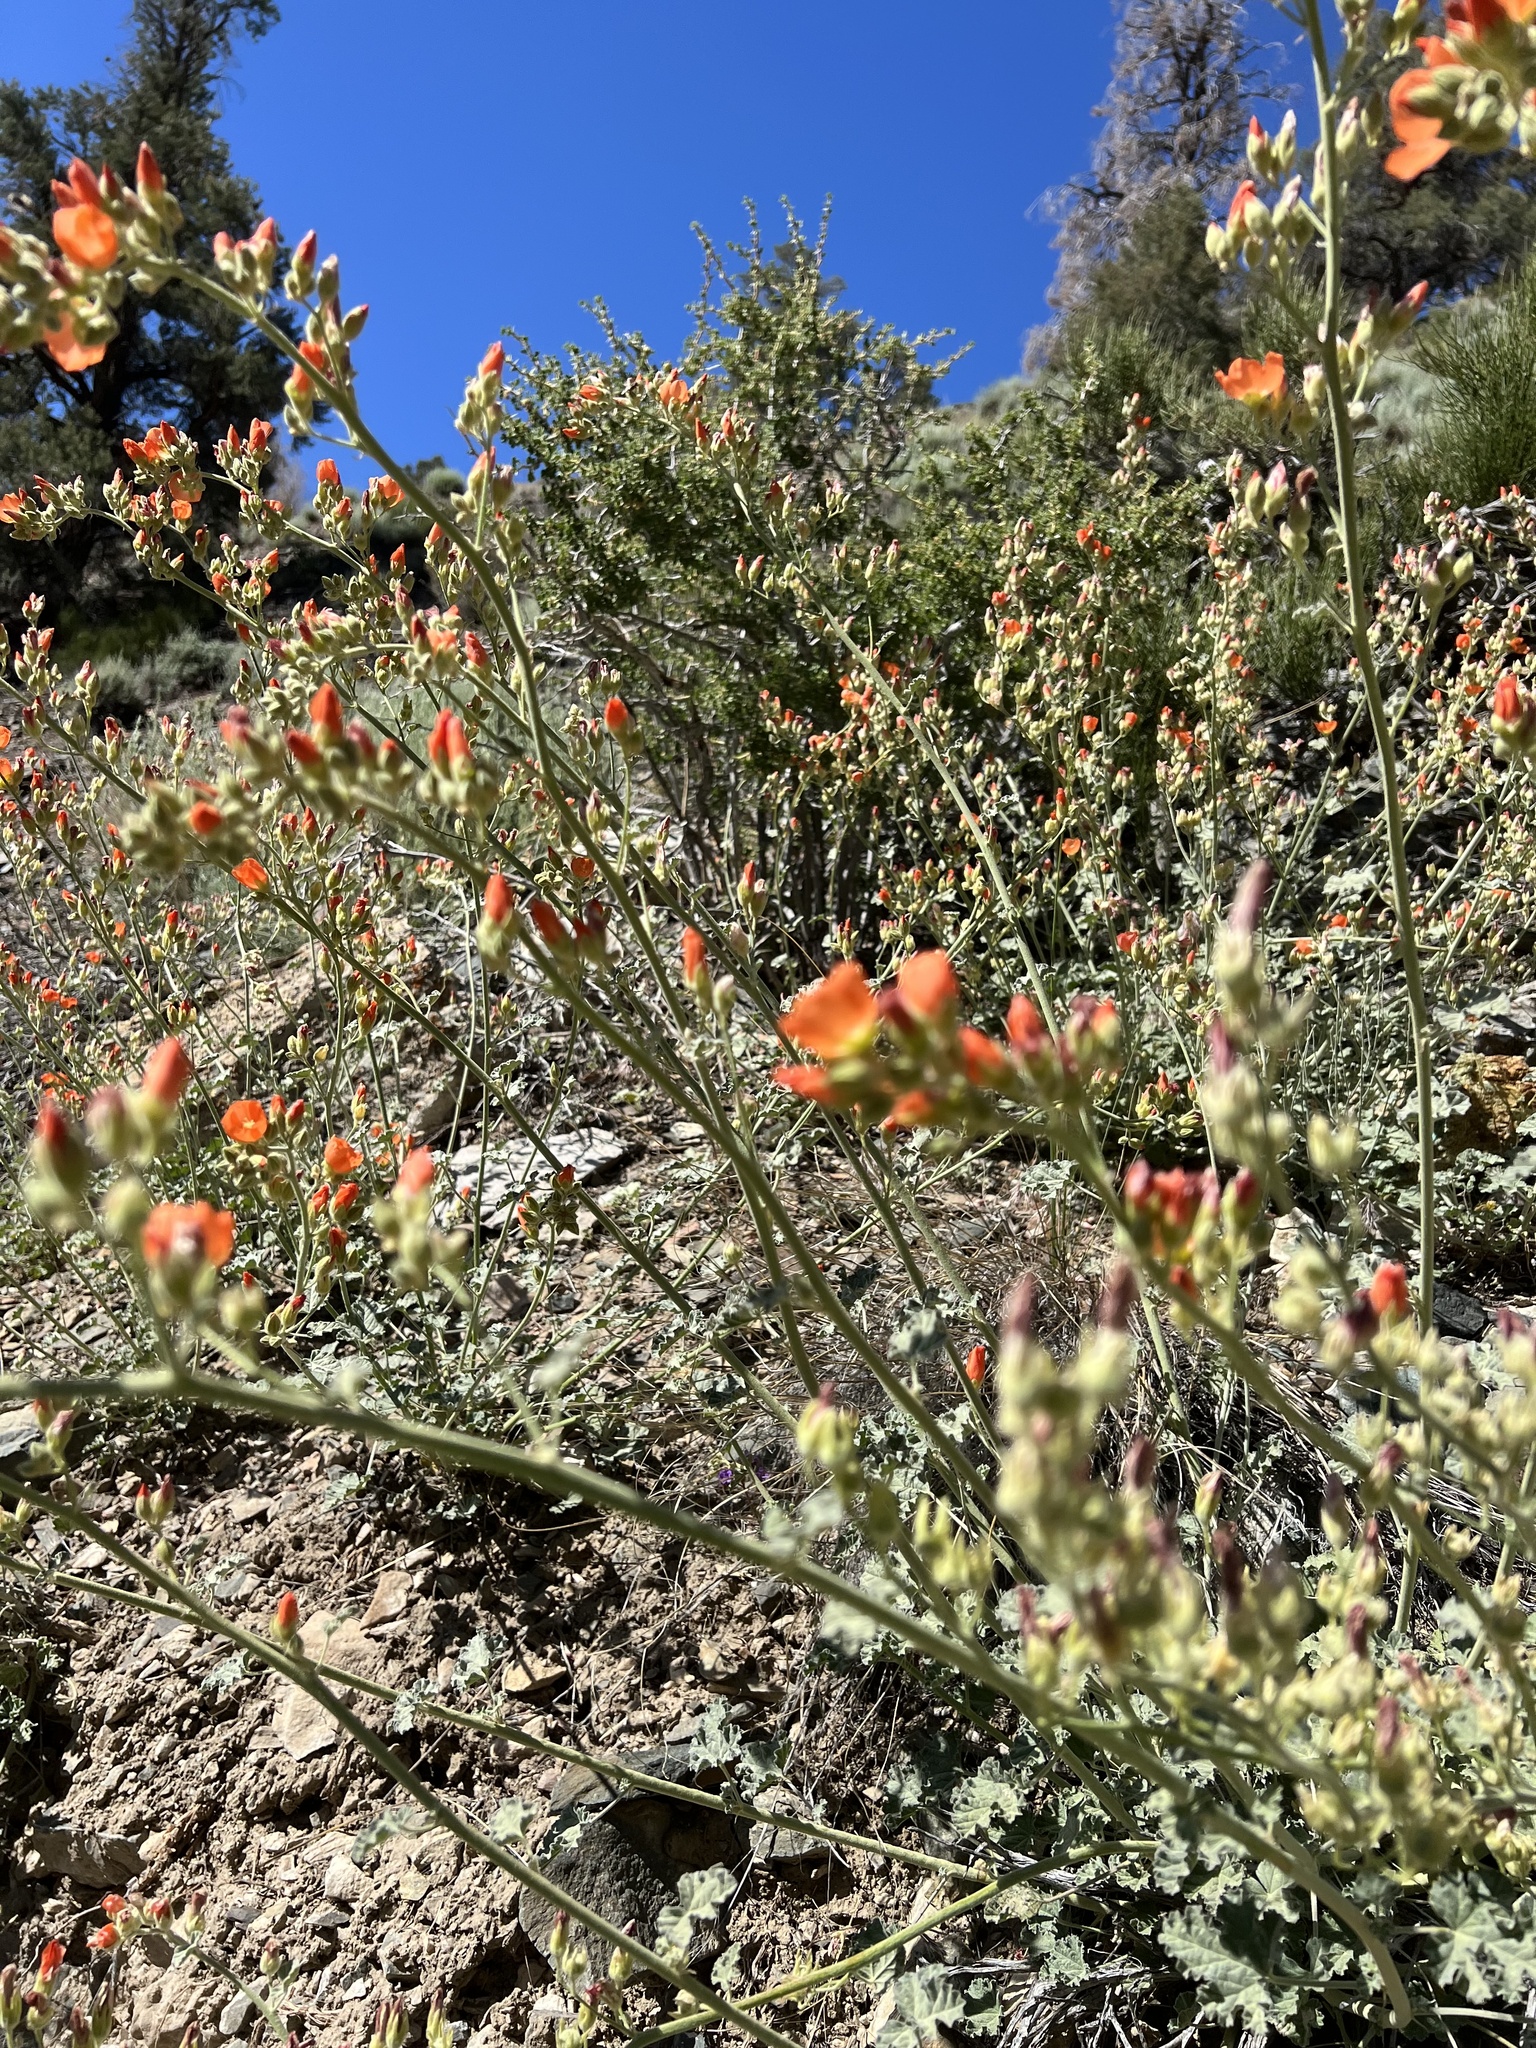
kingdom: Plantae
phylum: Tracheophyta
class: Magnoliopsida
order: Malvales
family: Malvaceae
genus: Sphaeralcea
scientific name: Sphaeralcea ambigua
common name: Apricot globe-mallow
